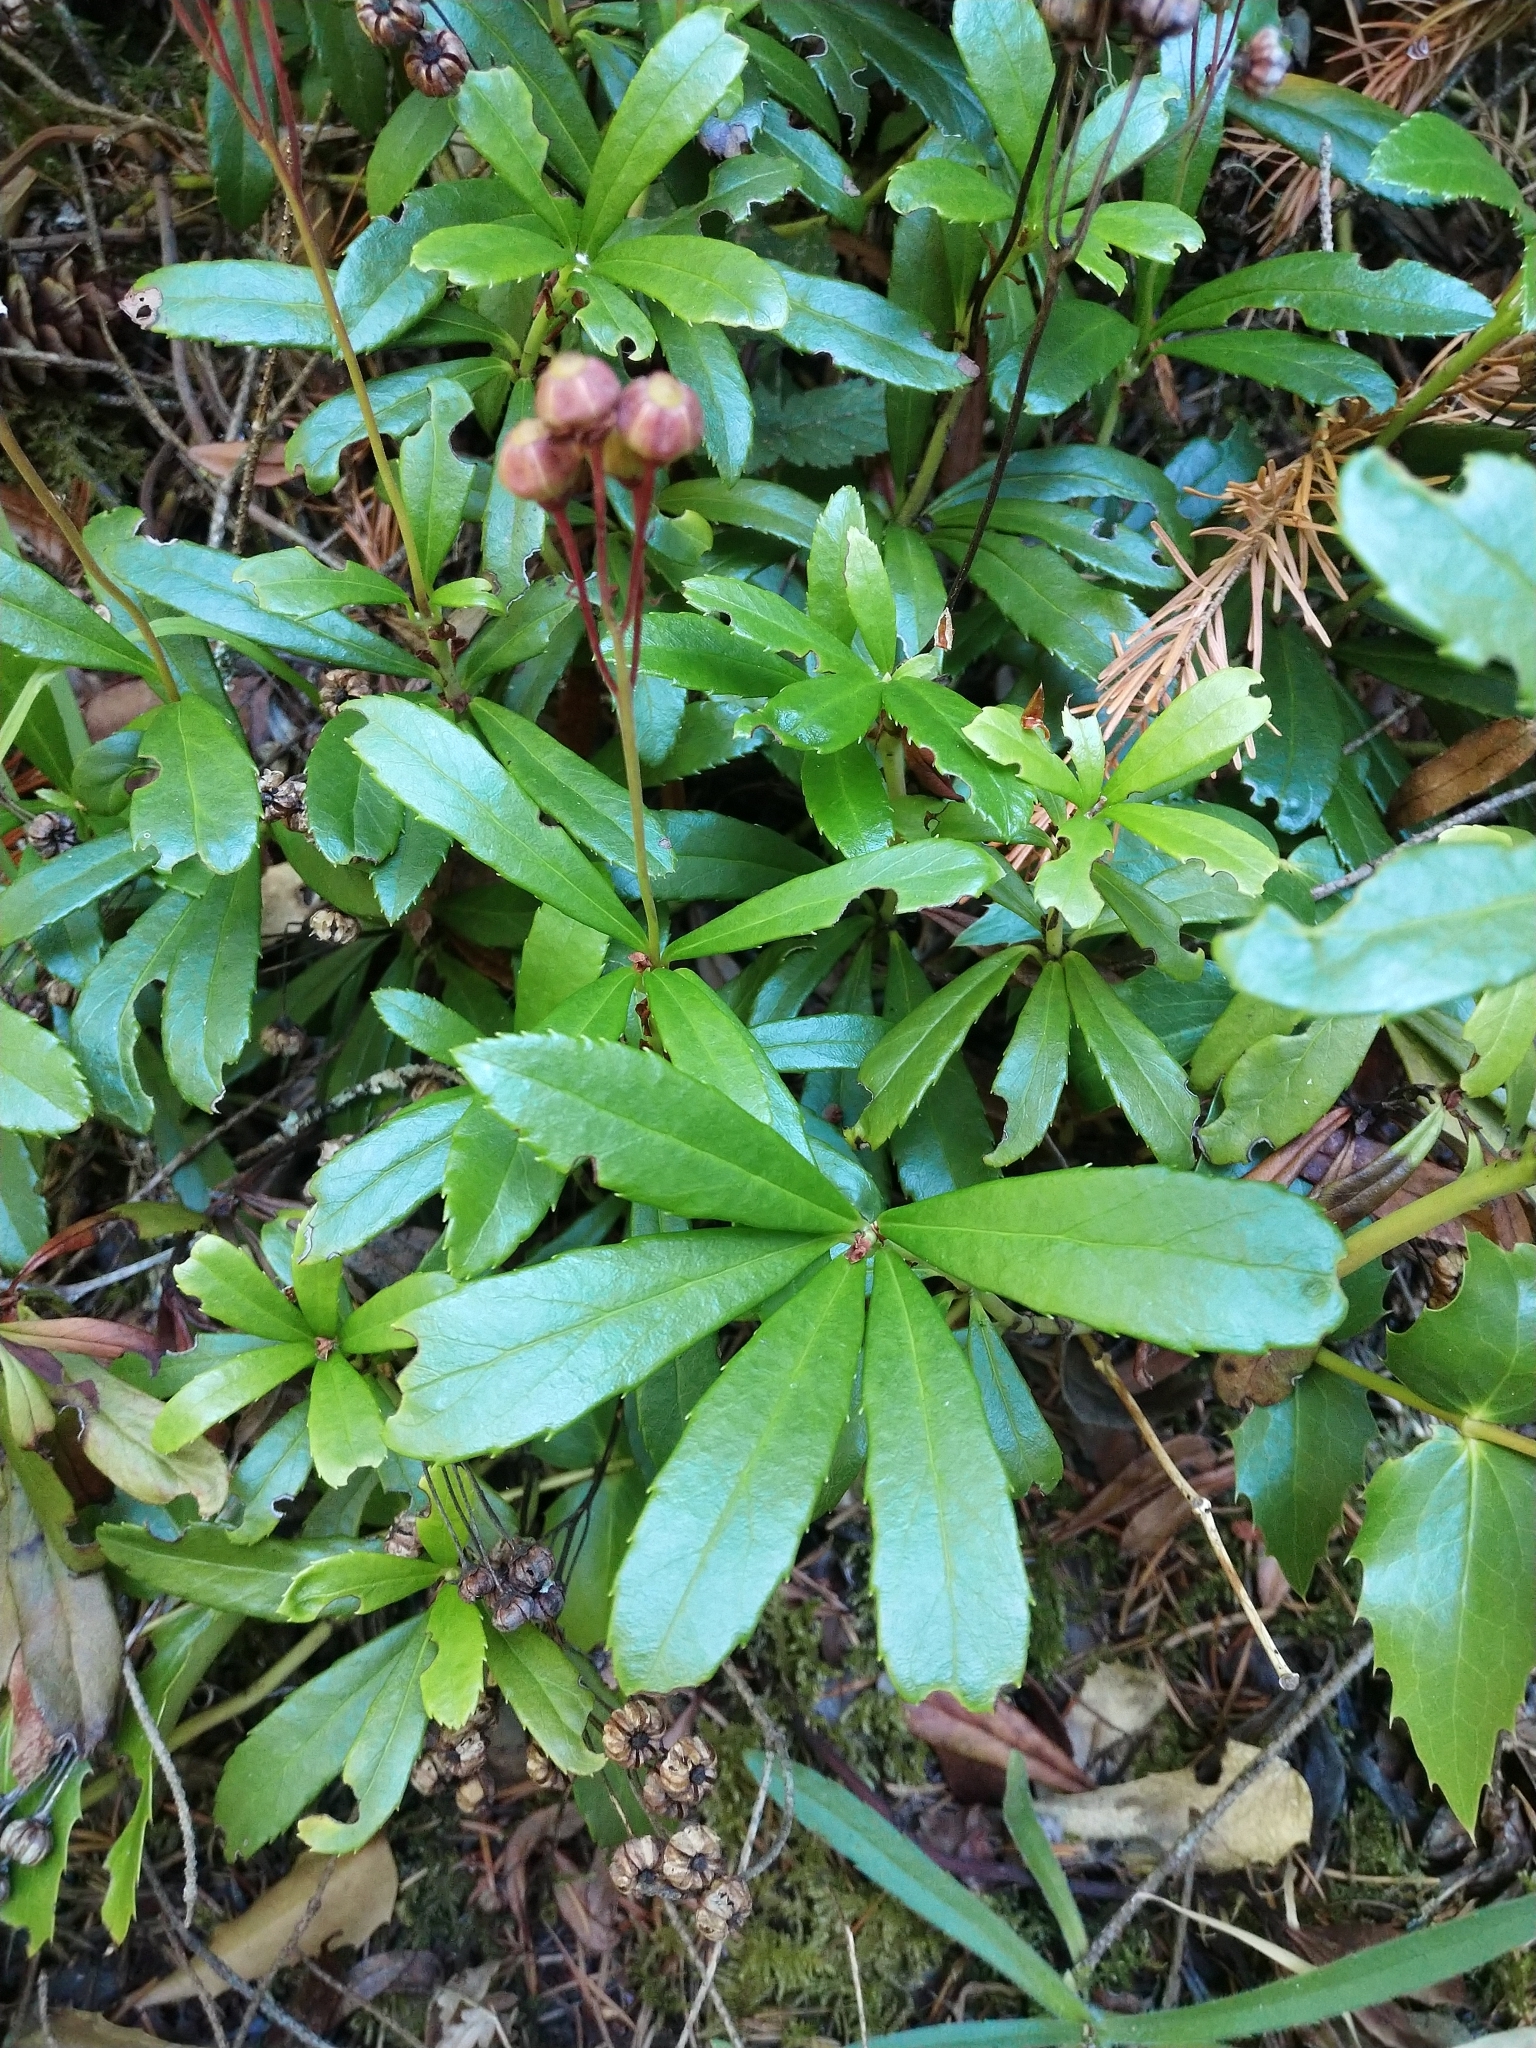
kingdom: Plantae
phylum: Tracheophyta
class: Magnoliopsida
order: Ericales
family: Ericaceae
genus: Chimaphila
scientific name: Chimaphila umbellata
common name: Pipsissewa
